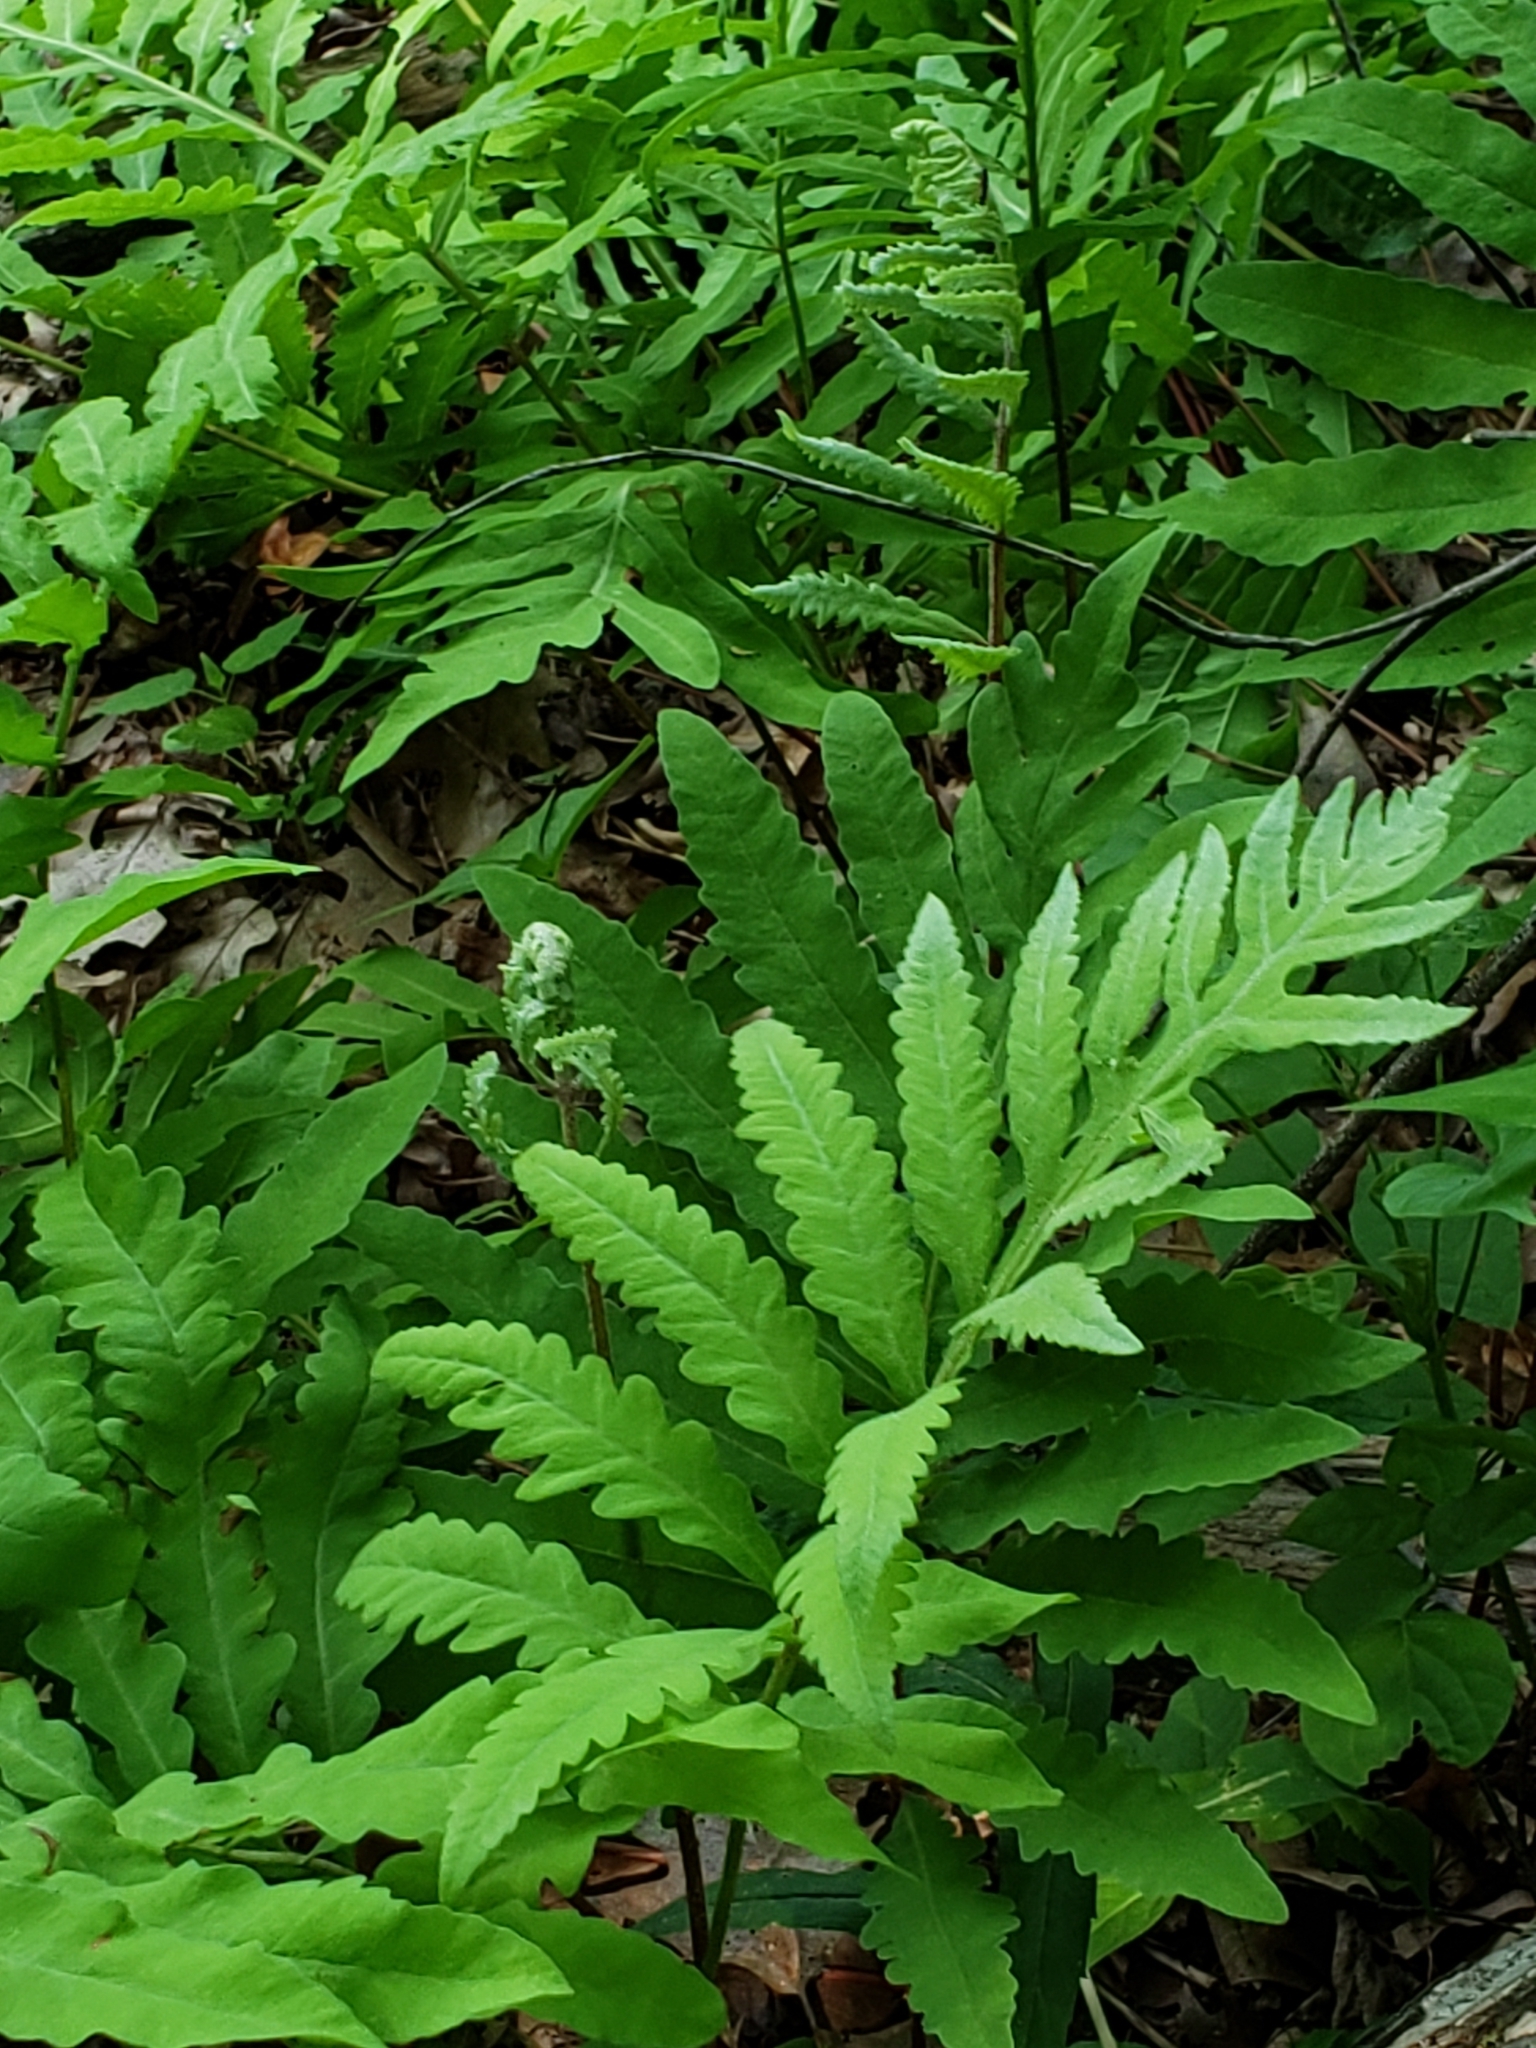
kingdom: Plantae
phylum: Tracheophyta
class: Polypodiopsida
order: Polypodiales
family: Onocleaceae
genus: Onoclea
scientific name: Onoclea sensibilis
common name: Sensitive fern
